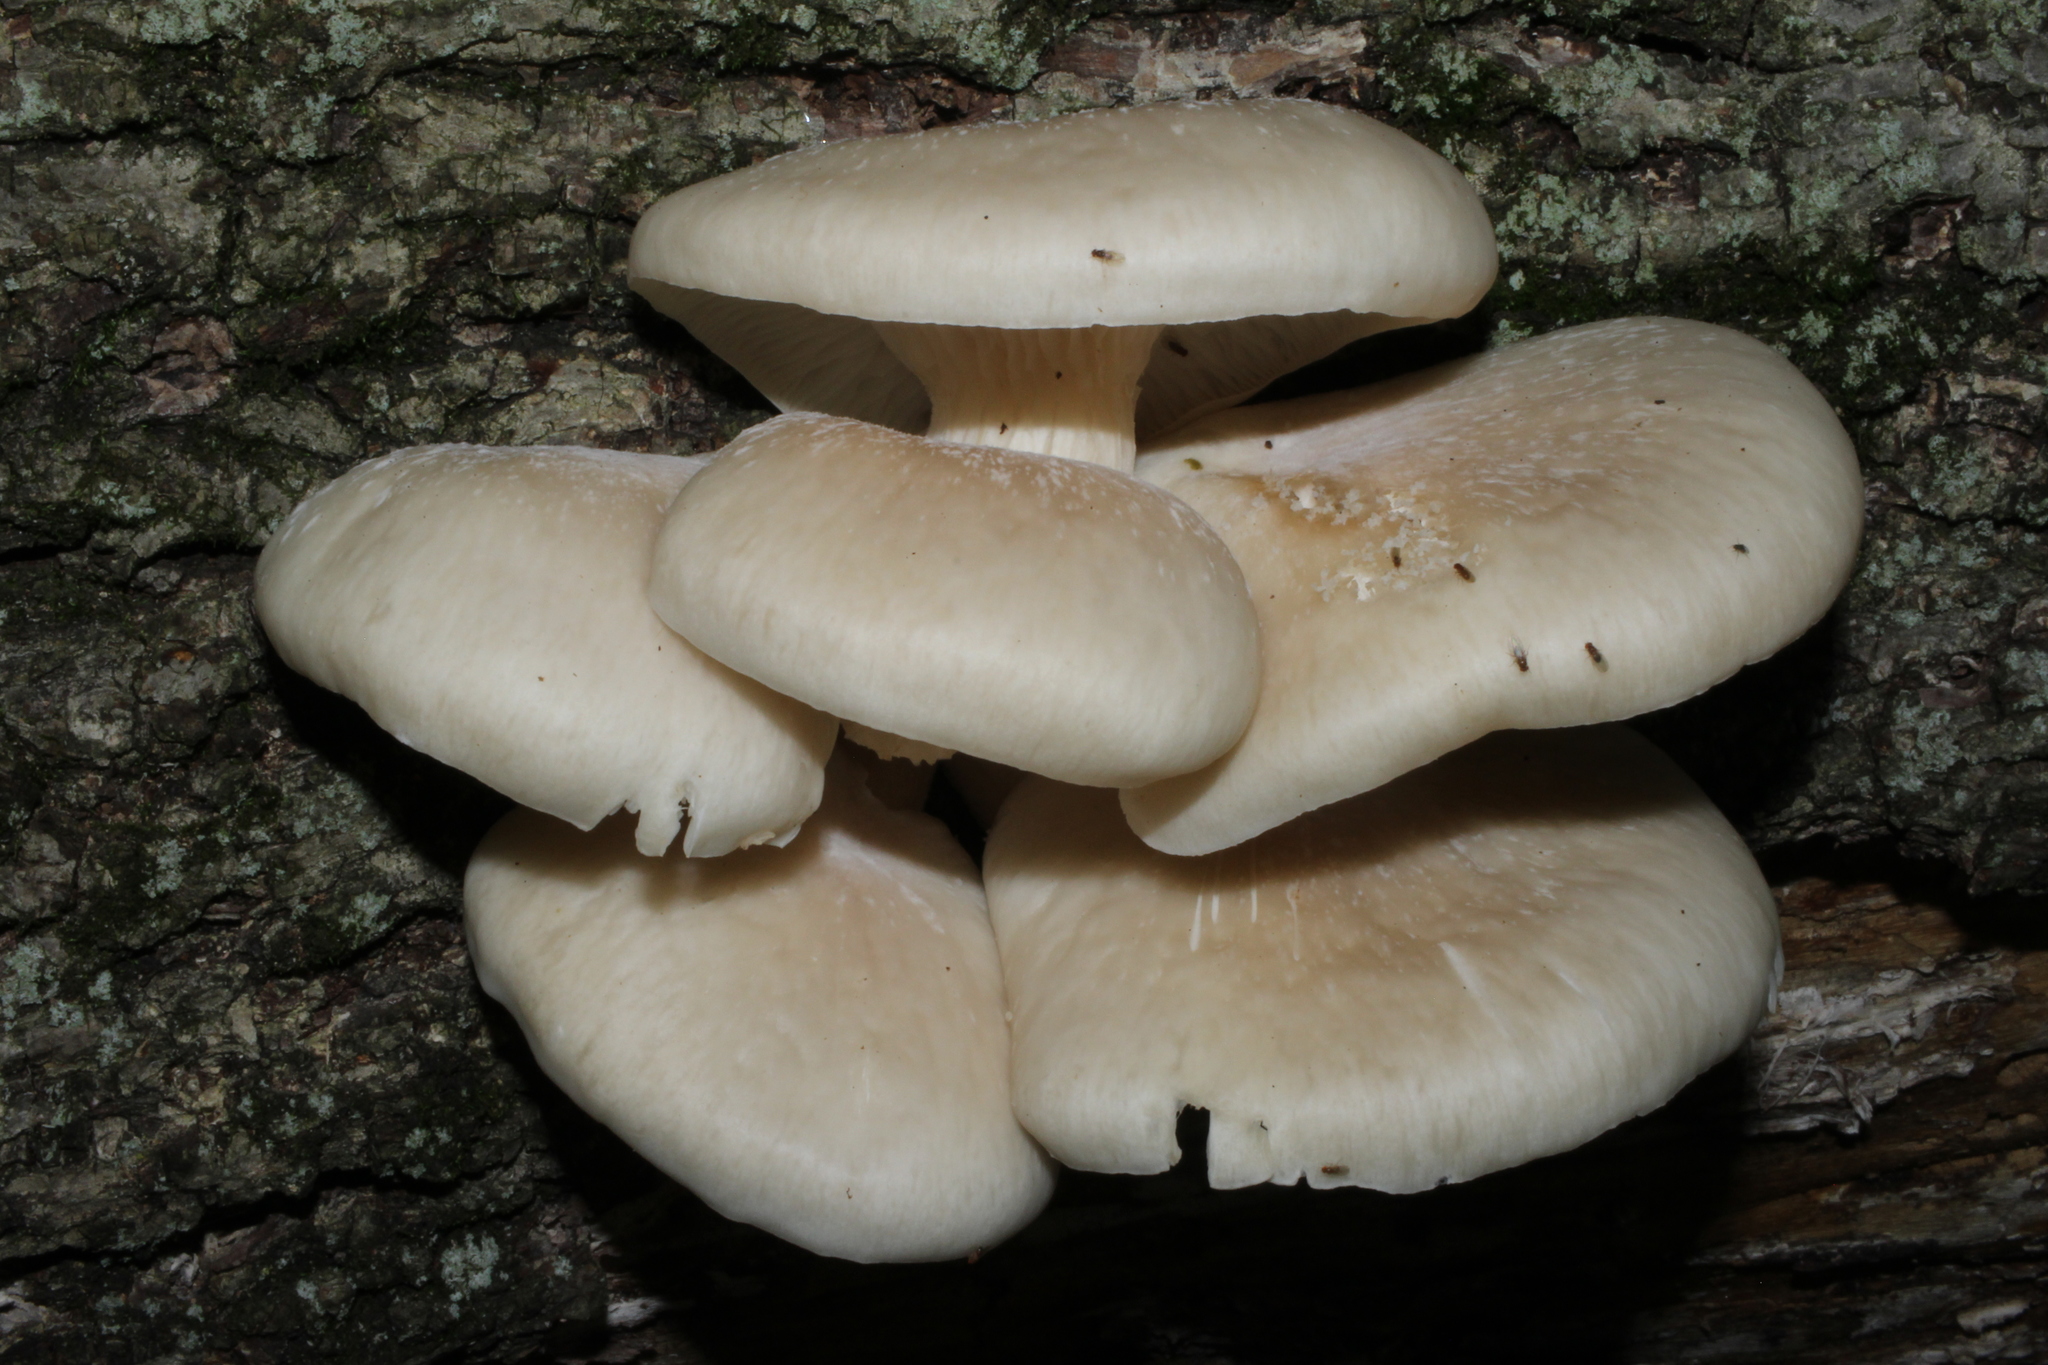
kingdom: Fungi
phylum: Basidiomycota
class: Agaricomycetes
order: Agaricales
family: Pleurotaceae
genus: Pleurotus
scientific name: Pleurotus pulmonarius
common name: Pale oyster
